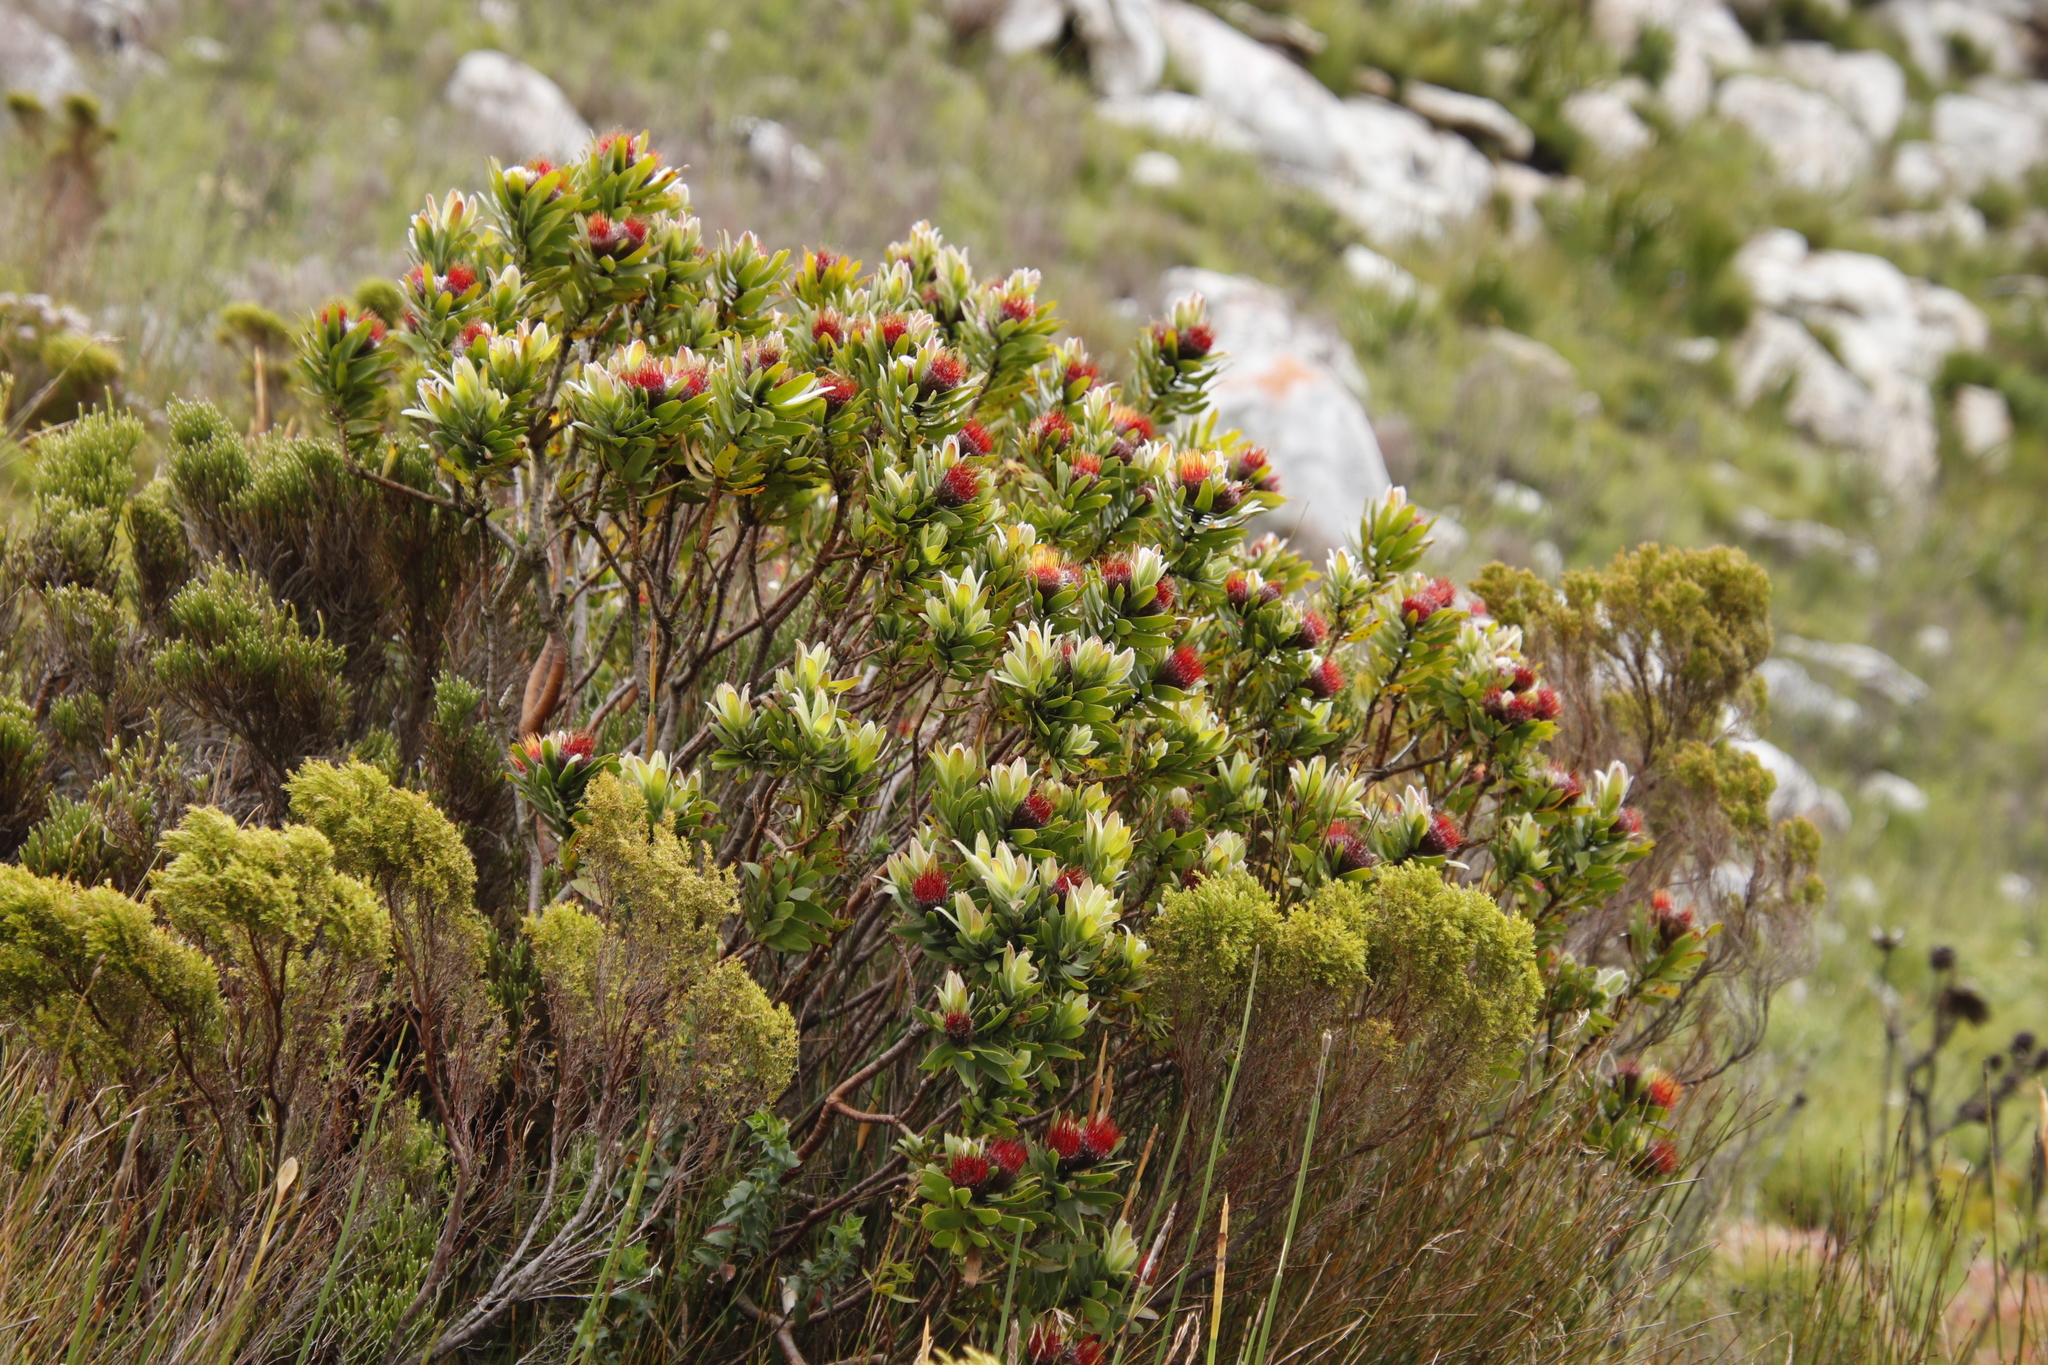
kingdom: Plantae
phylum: Tracheophyta
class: Magnoliopsida
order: Proteales
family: Proteaceae
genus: Leucospermum
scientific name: Leucospermum oleifolium
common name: Matches
